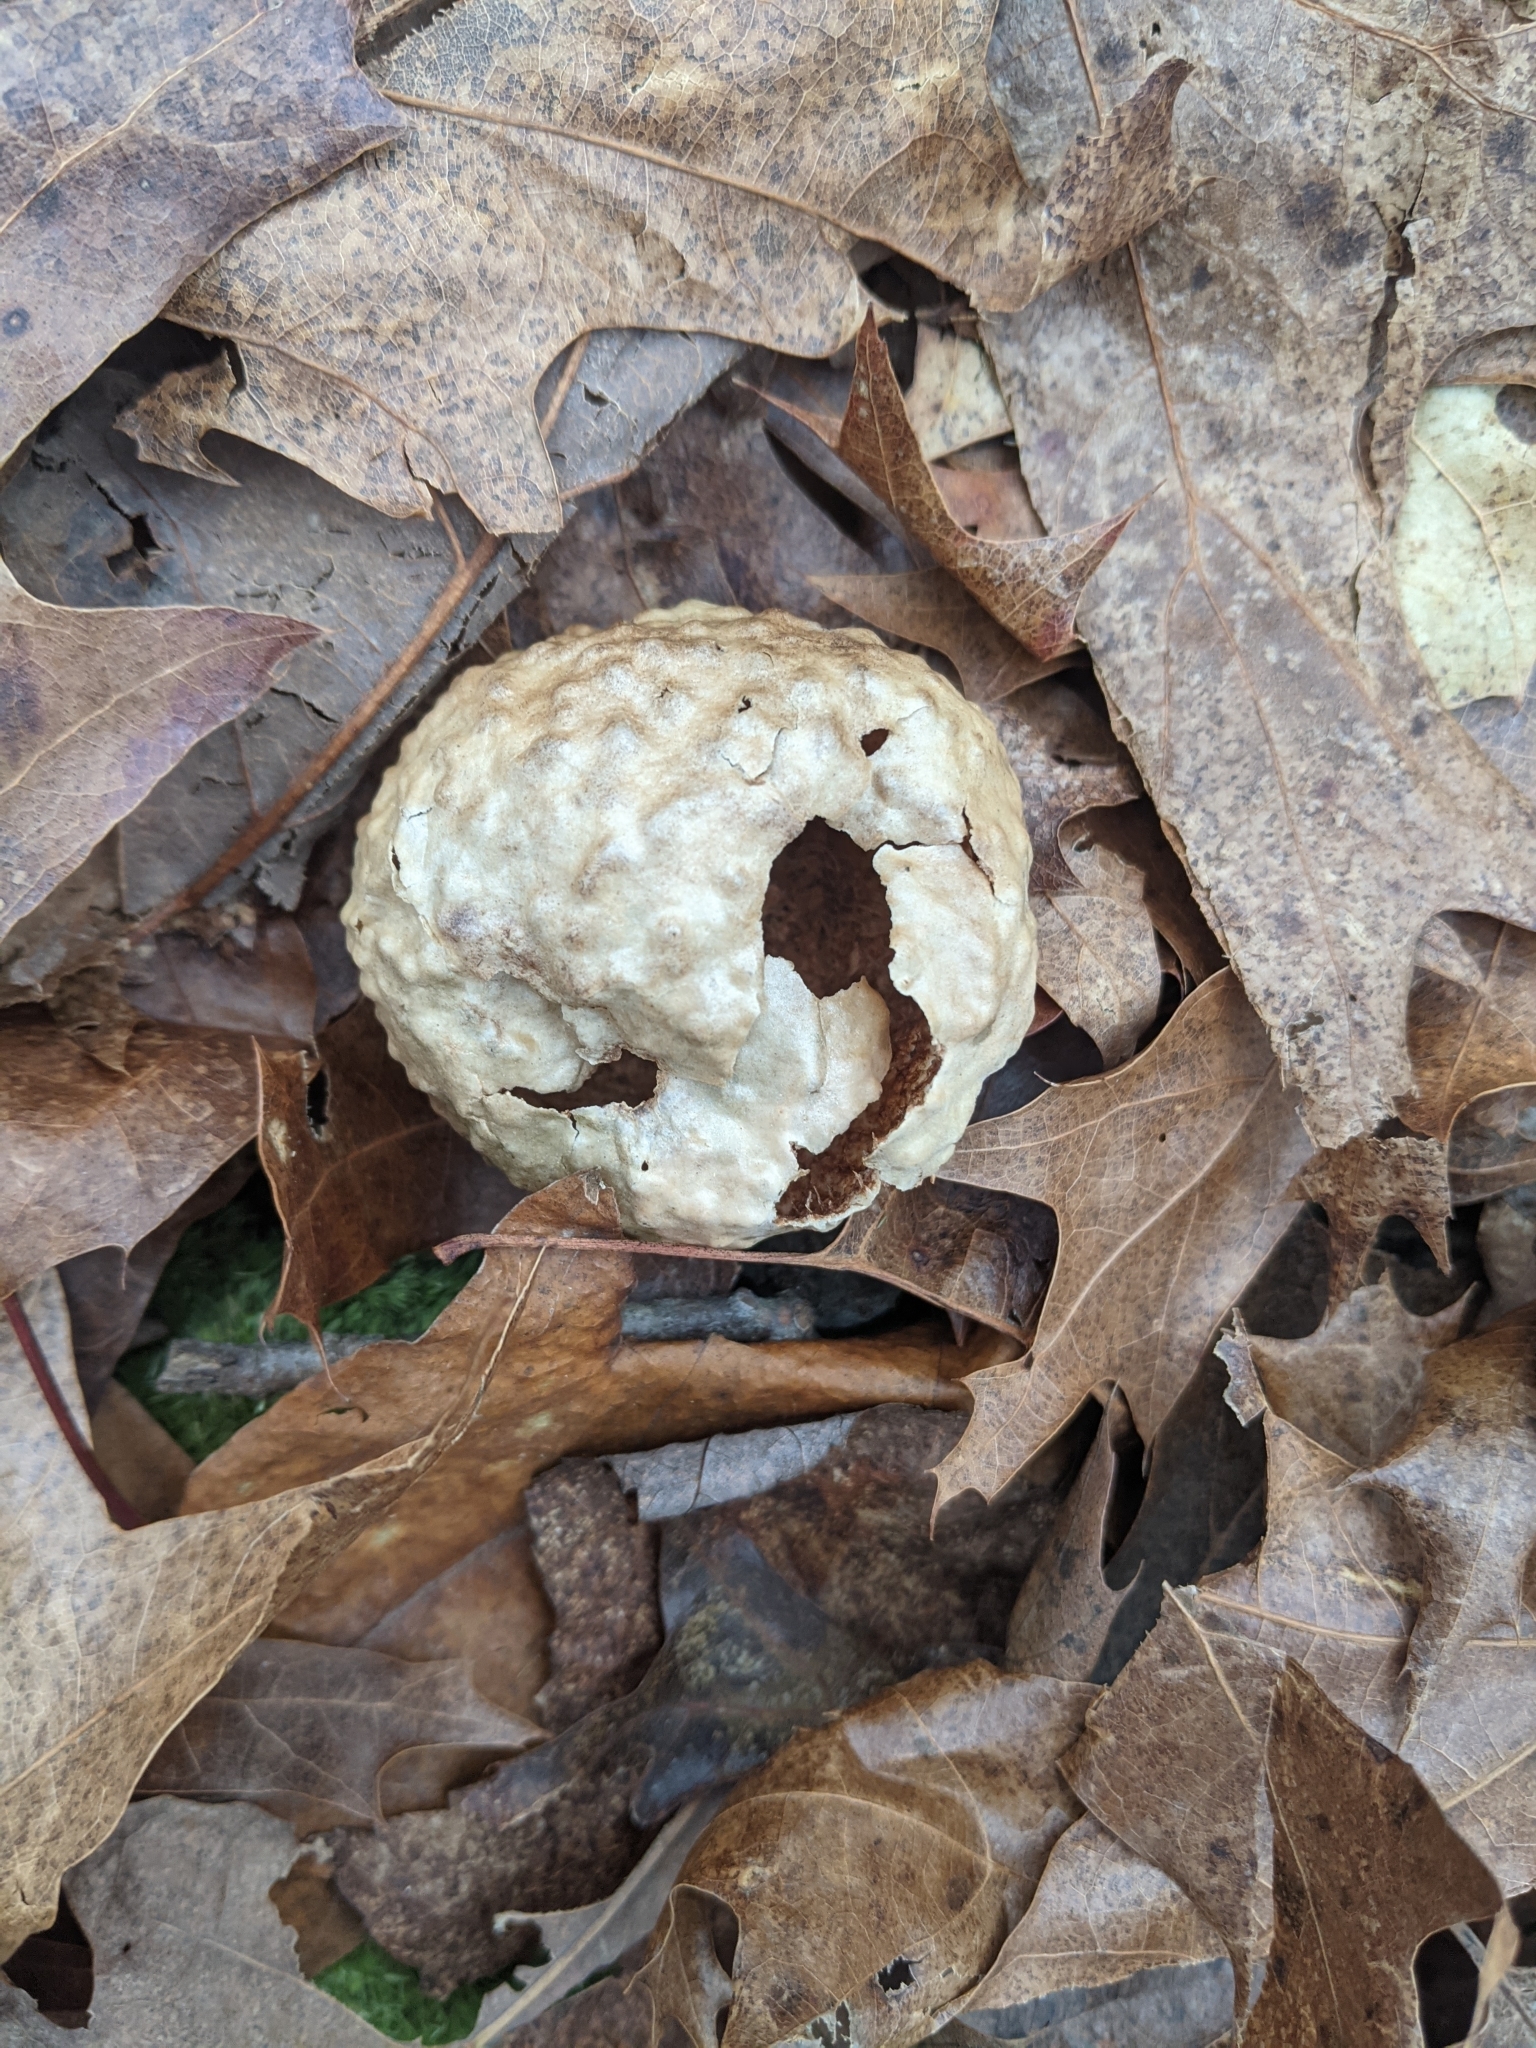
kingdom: Animalia
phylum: Arthropoda
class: Insecta
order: Hymenoptera
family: Cynipidae
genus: Amphibolips
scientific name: Amphibolips
